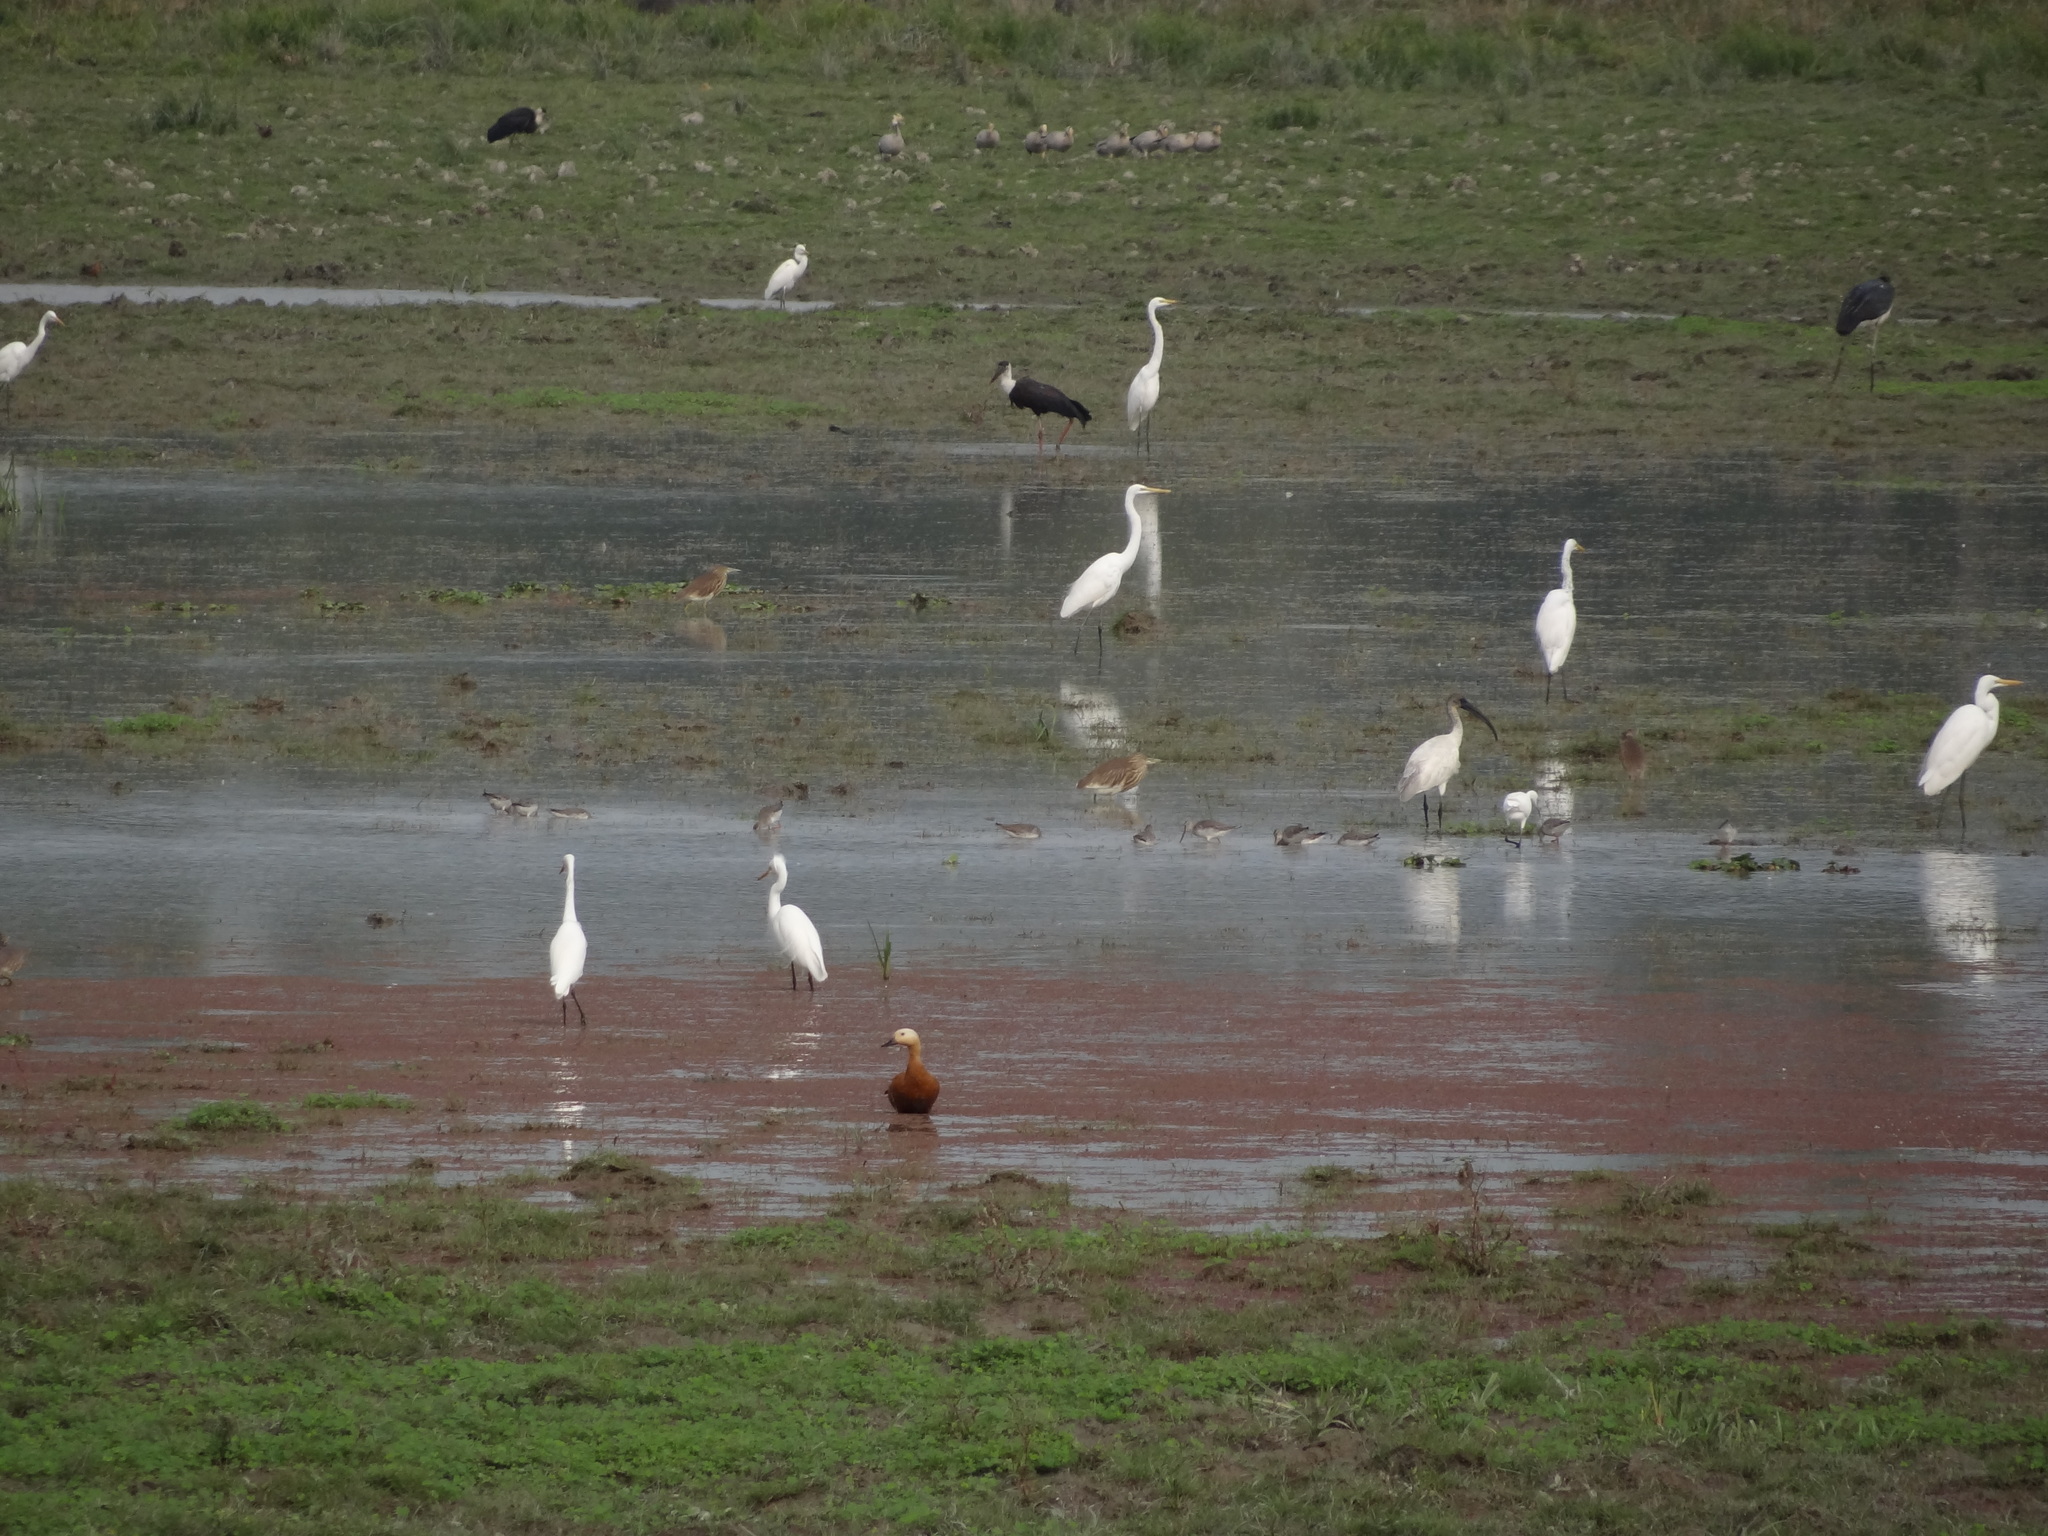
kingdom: Animalia
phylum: Chordata
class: Aves
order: Pelecaniformes
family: Threskiornithidae
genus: Threskiornis
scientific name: Threskiornis melanocephalus
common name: Black-headed ibis
